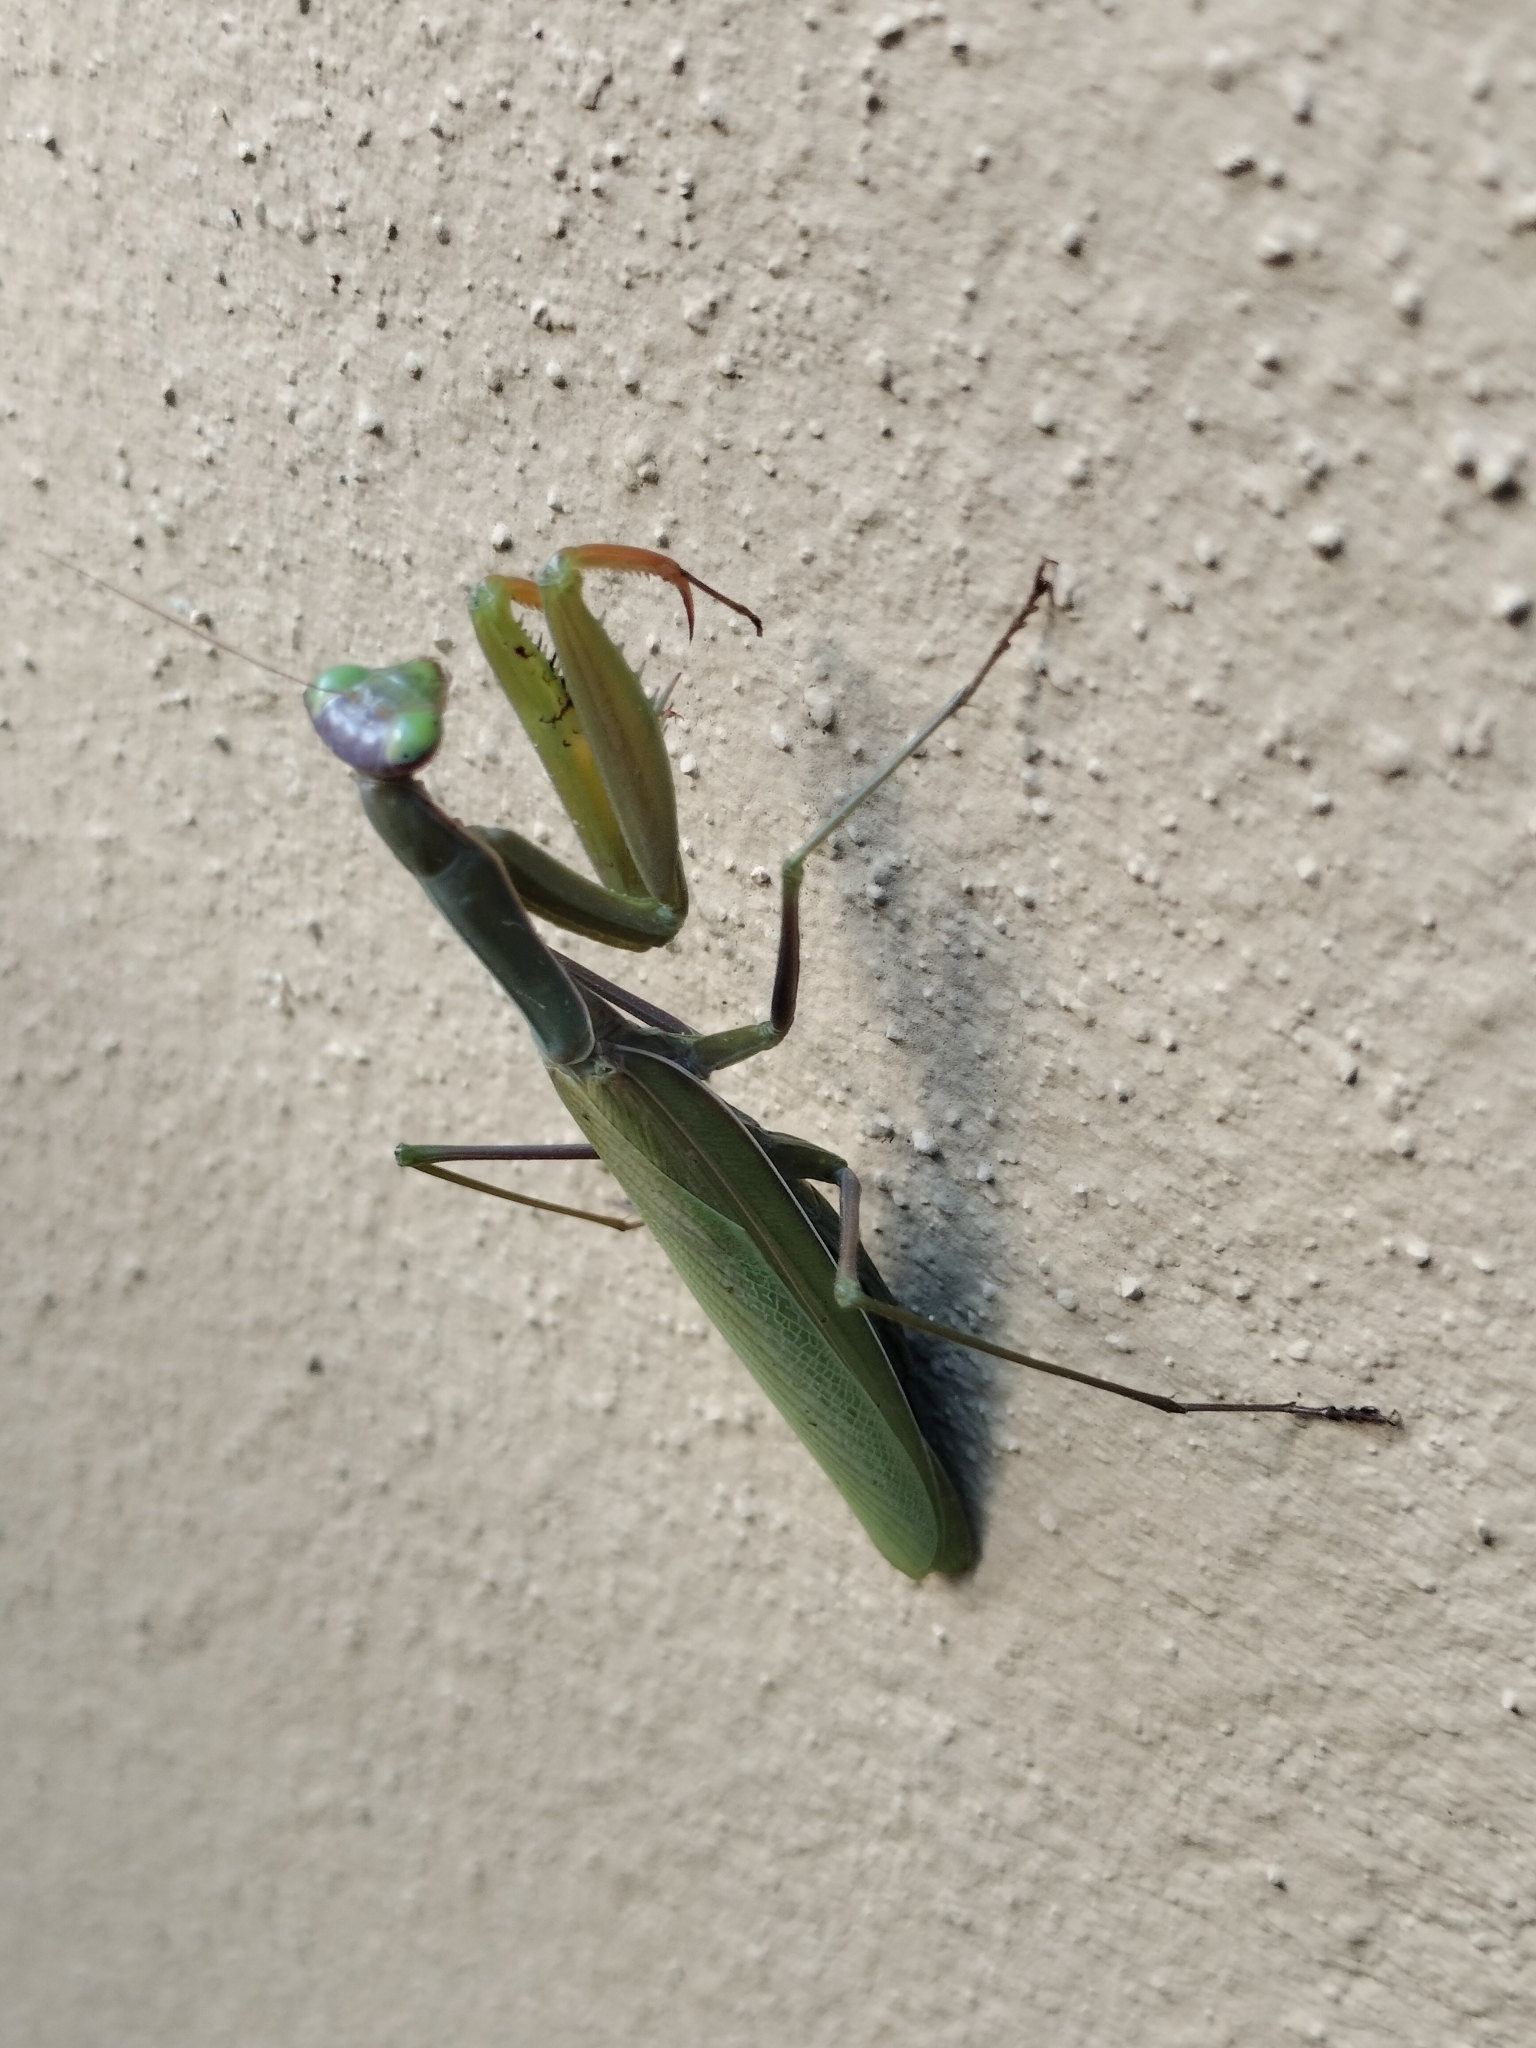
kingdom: Animalia
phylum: Arthropoda
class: Insecta
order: Mantodea
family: Mantidae
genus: Mantis
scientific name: Mantis religiosa
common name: Praying mantis
